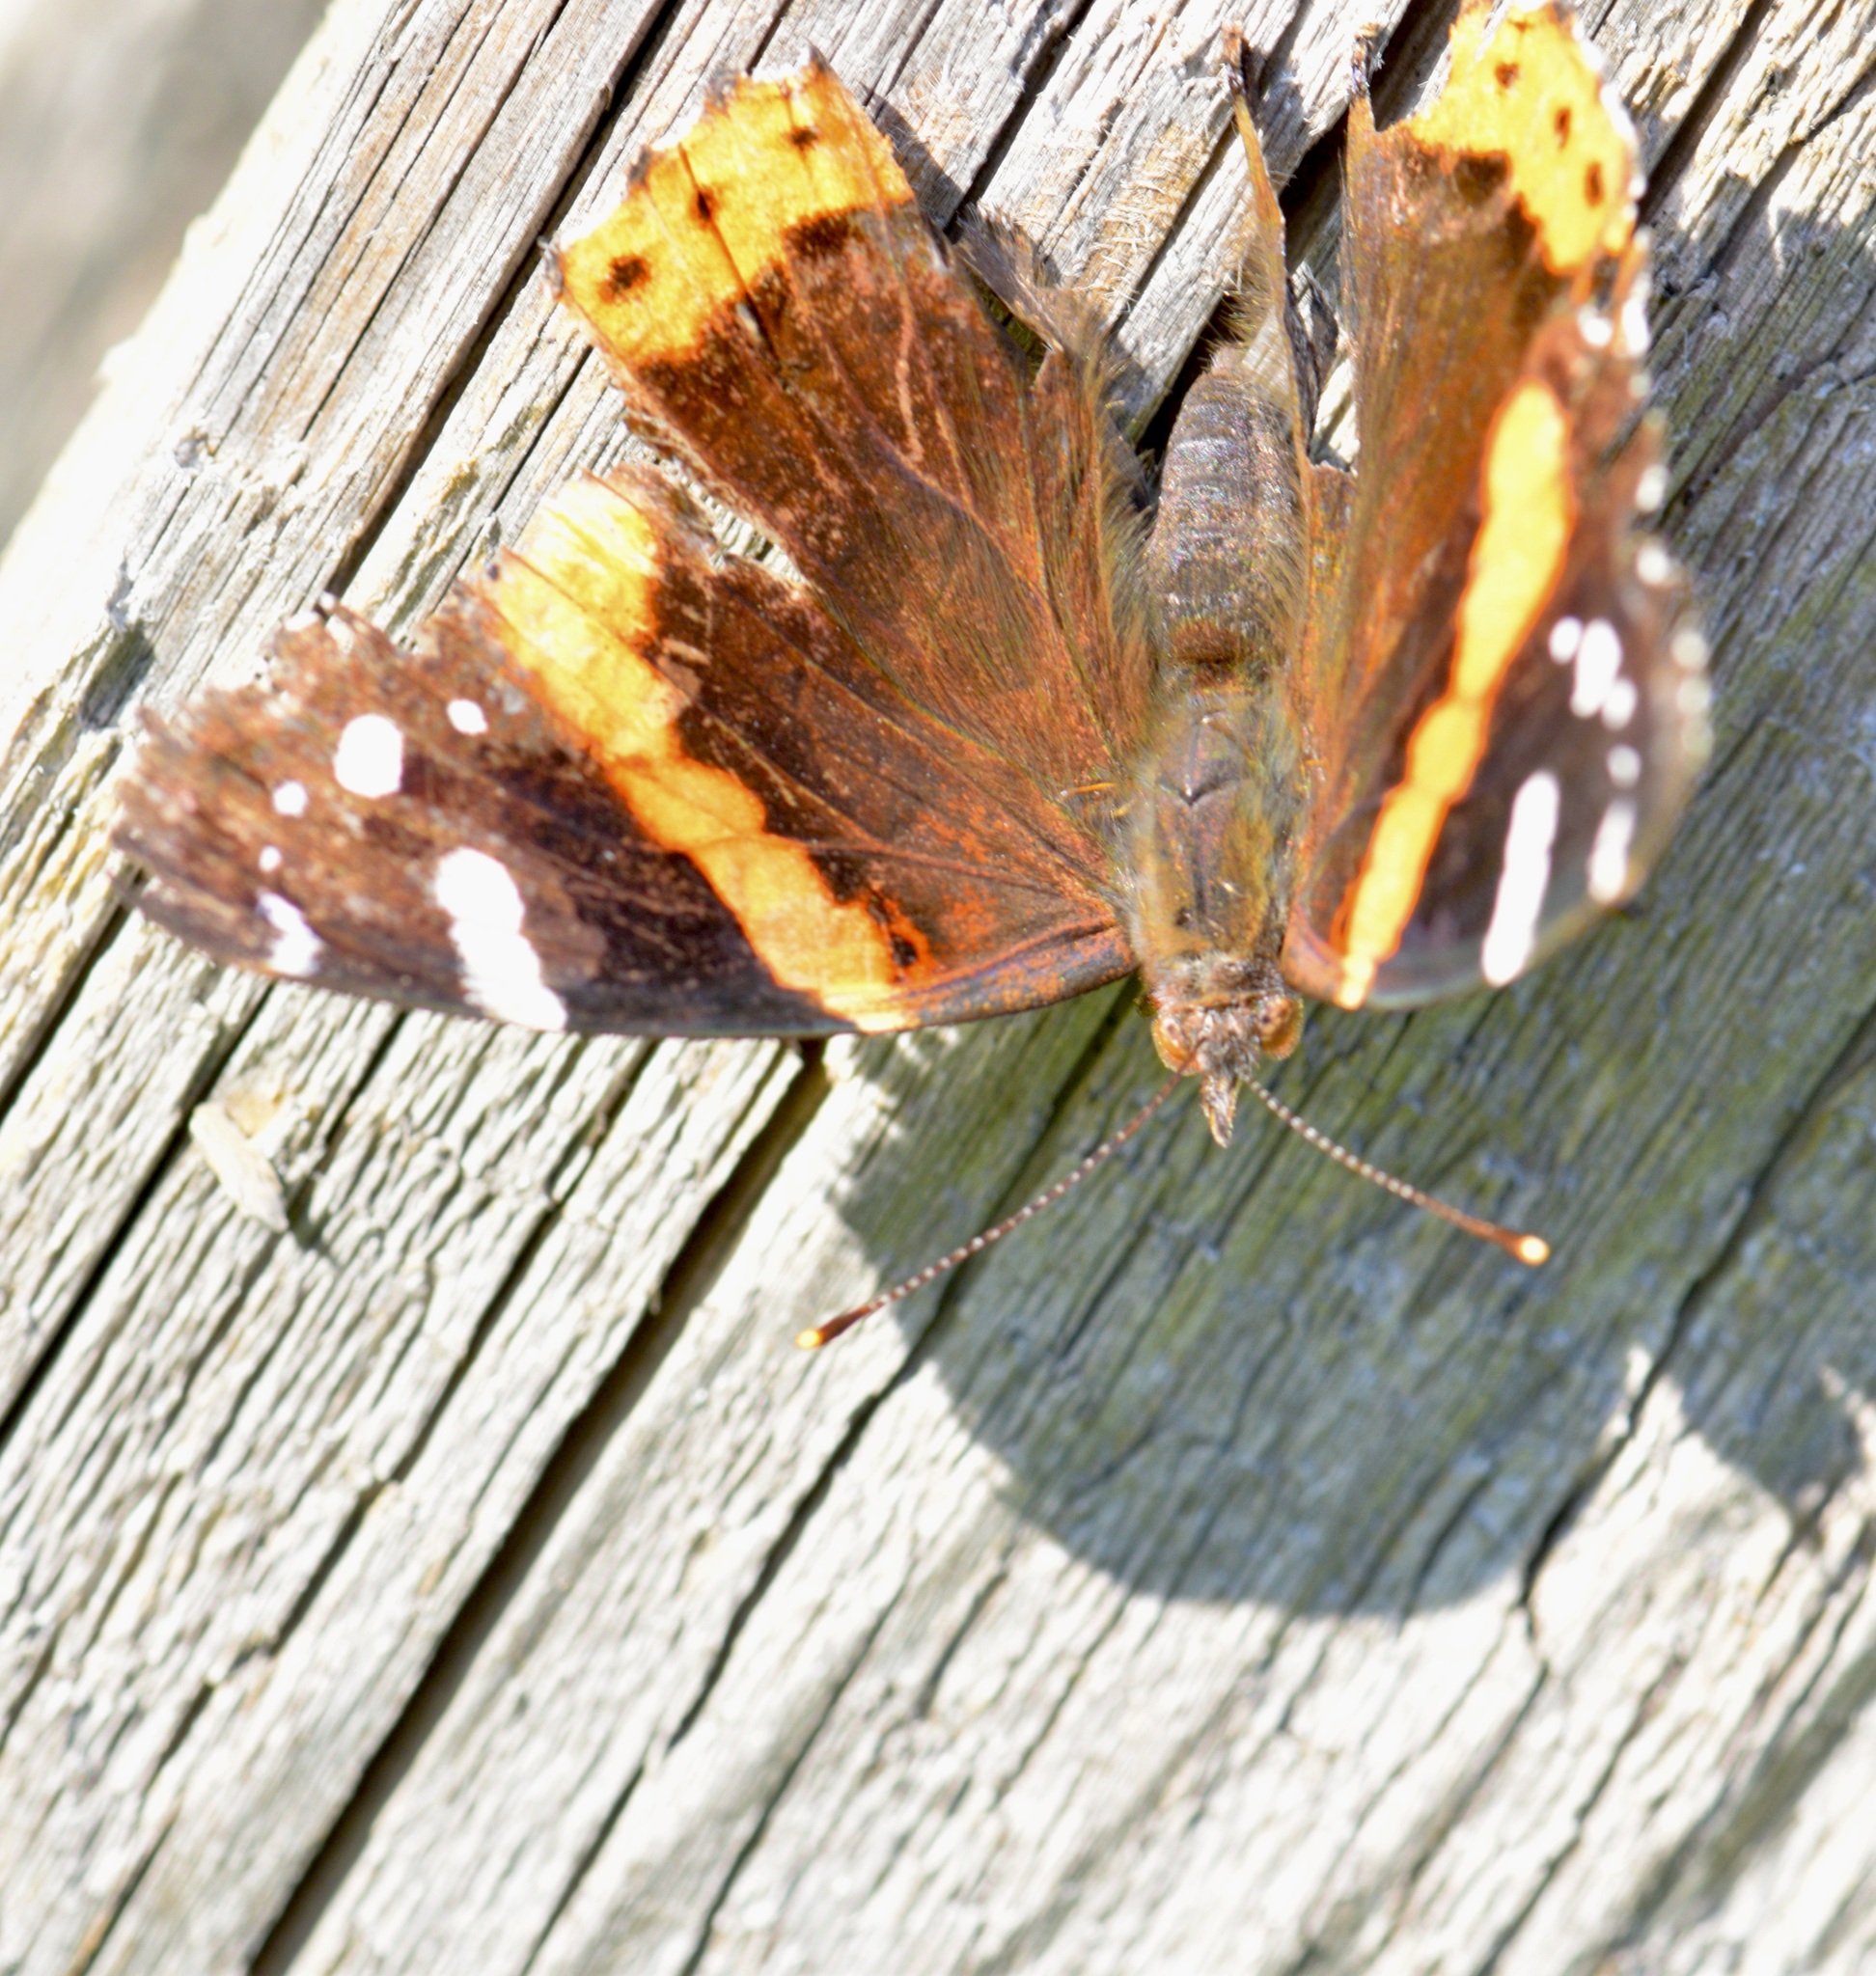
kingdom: Animalia
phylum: Arthropoda
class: Insecta
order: Lepidoptera
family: Nymphalidae
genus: Vanessa
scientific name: Vanessa atalanta
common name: Red admiral
